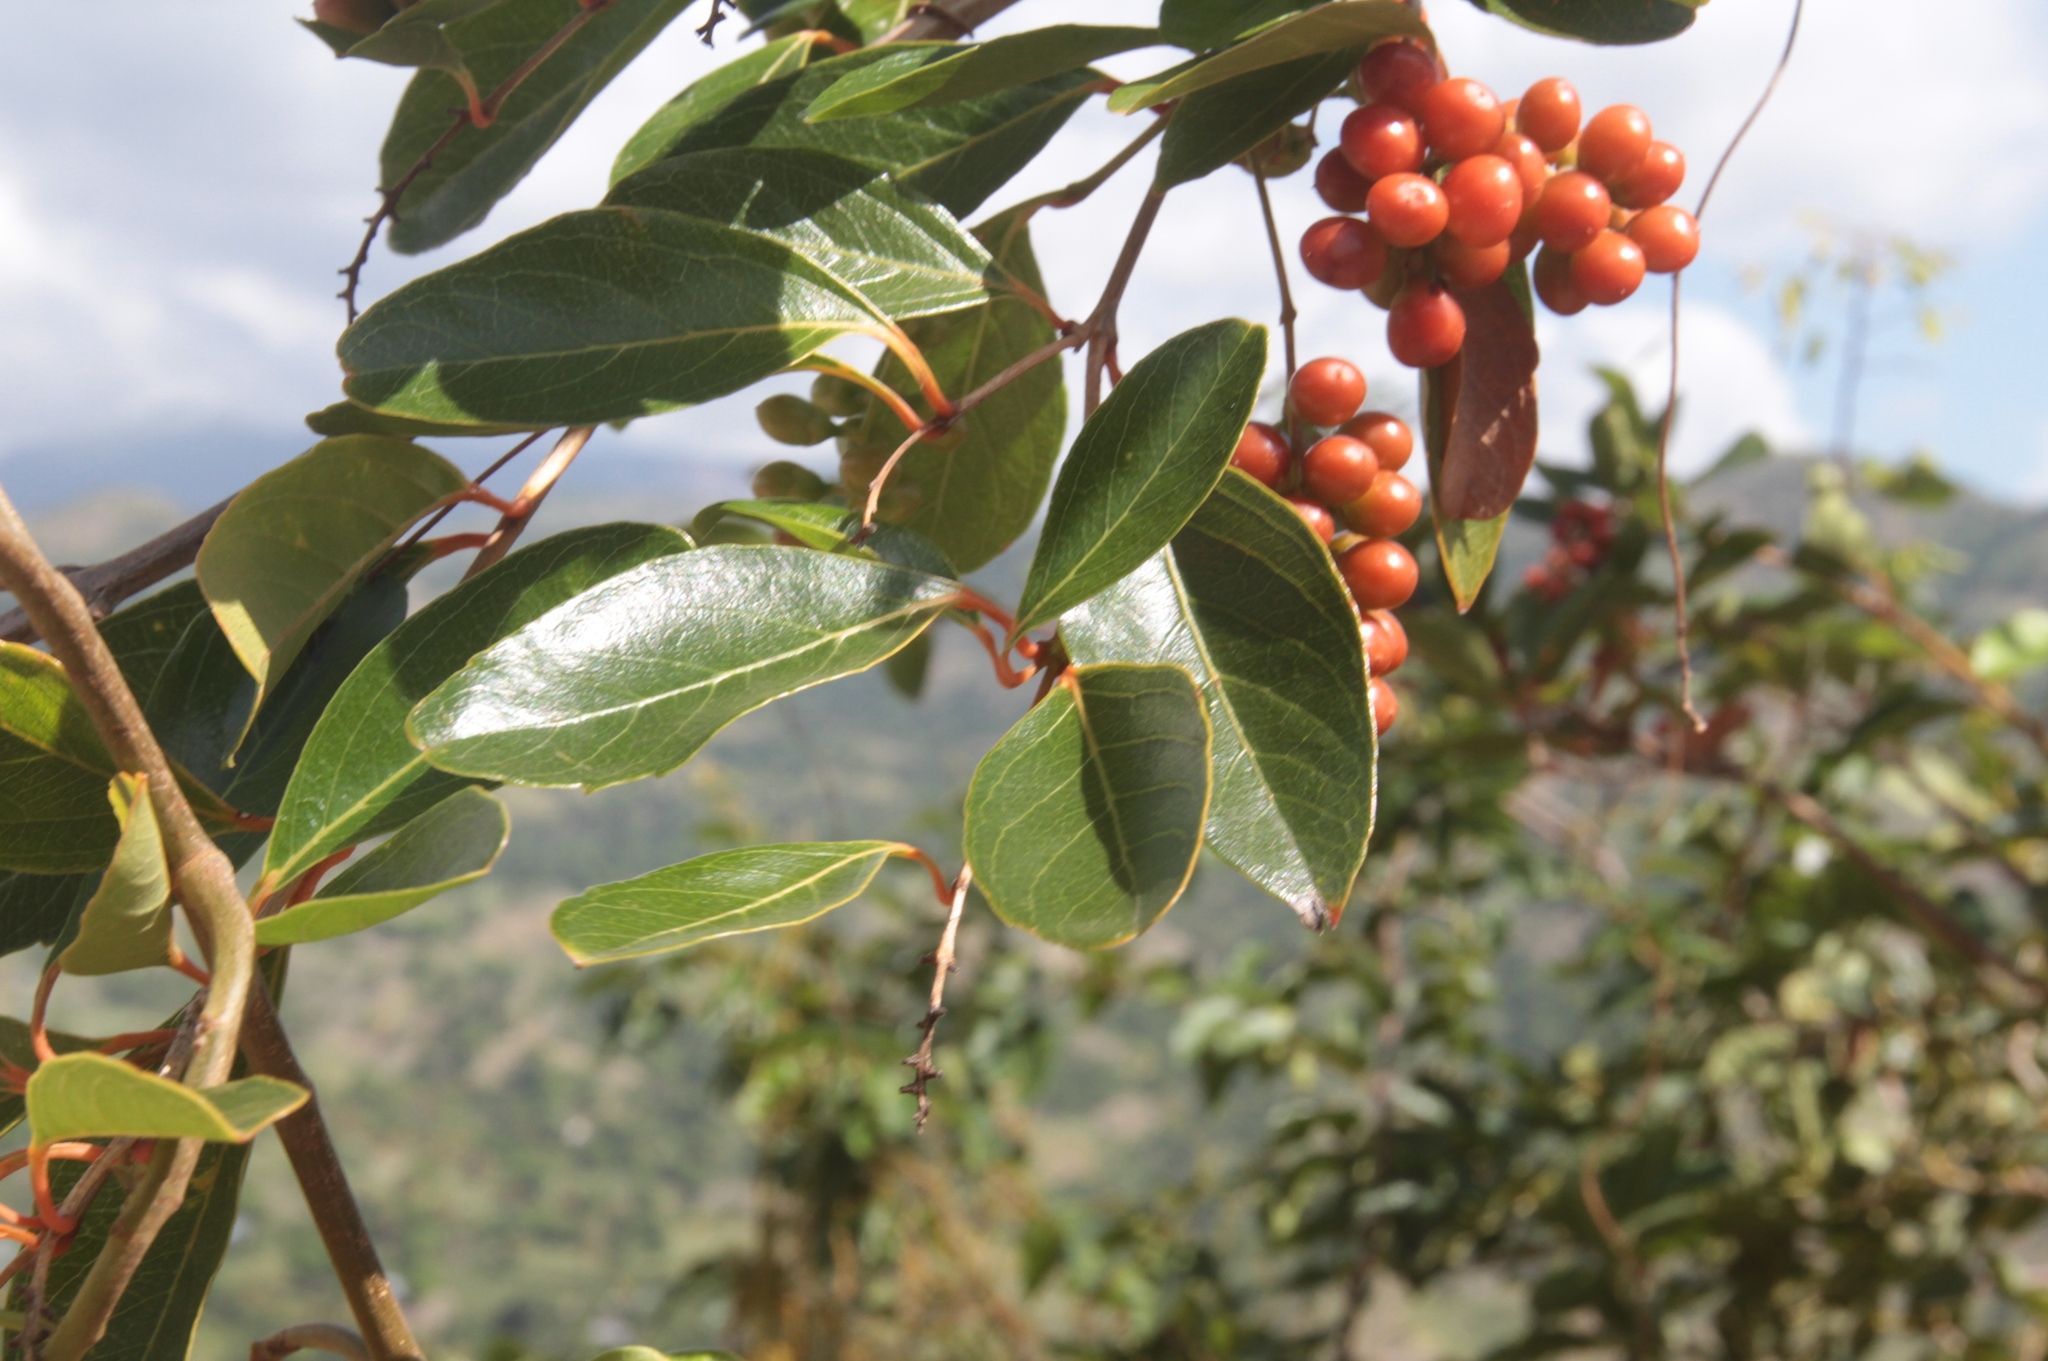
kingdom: Plantae
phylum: Tracheophyta
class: Magnoliopsida
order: Lamiales
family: Verbenaceae
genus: Citharexylum
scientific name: Citharexylum spinosum
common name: Fiddlewood
